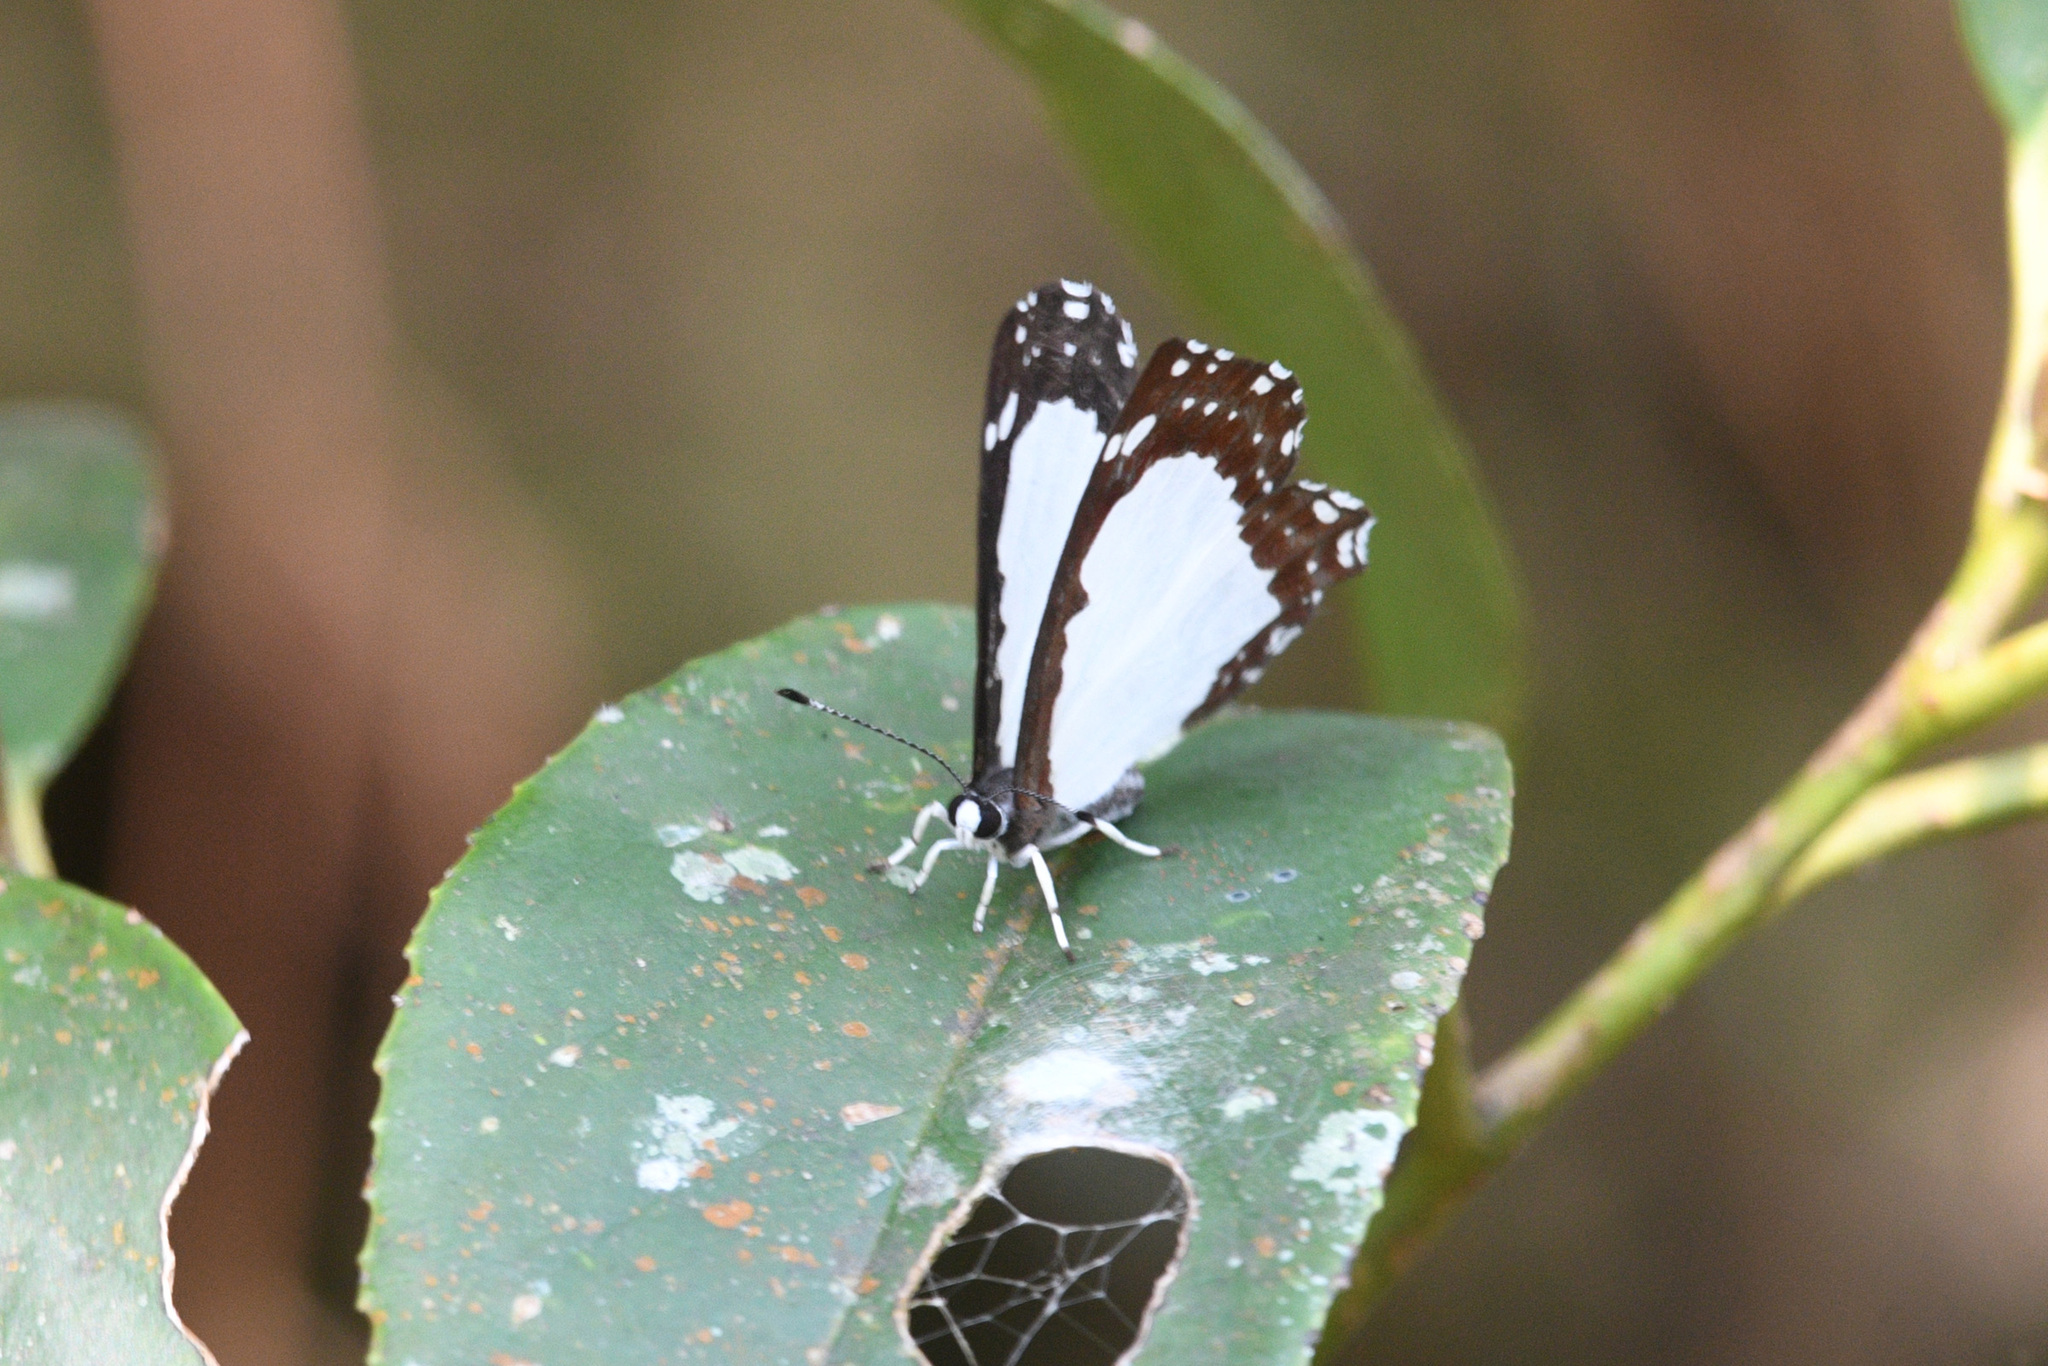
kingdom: Animalia
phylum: Arthropoda
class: Insecta
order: Lepidoptera
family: Riodinidae
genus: Stiboges
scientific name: Stiboges nymphidia
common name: Columbine
